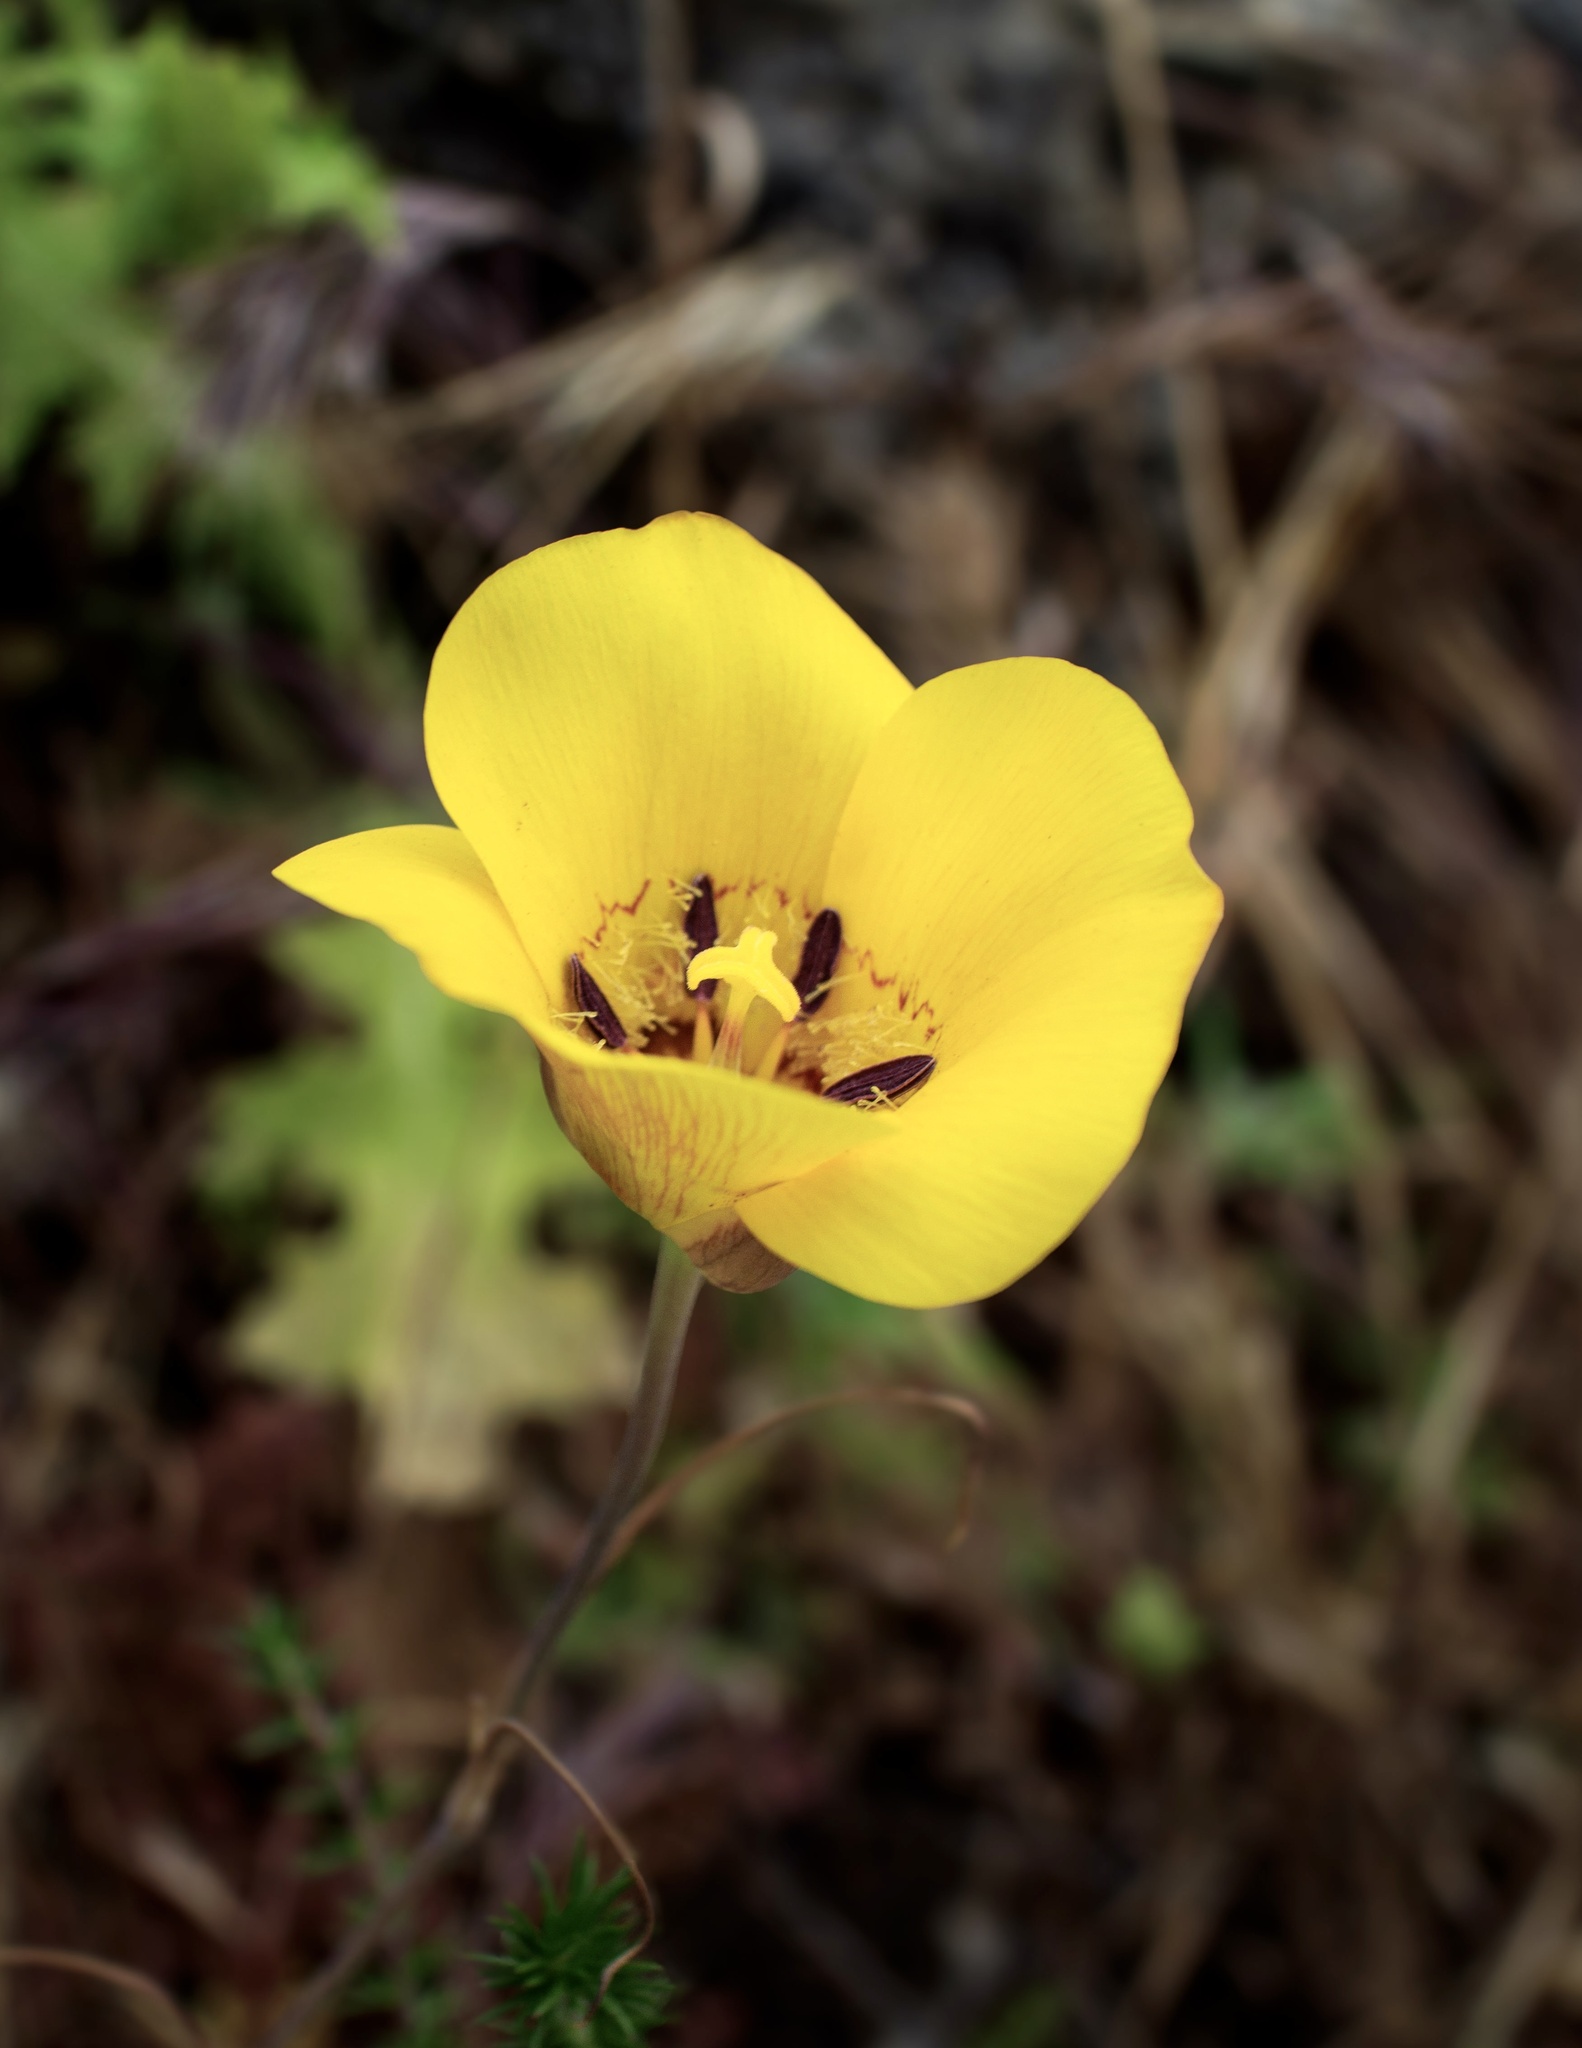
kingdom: Plantae
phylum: Tracheophyta
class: Liliopsida
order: Liliales
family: Liliaceae
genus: Calochortus
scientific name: Calochortus clavatus
